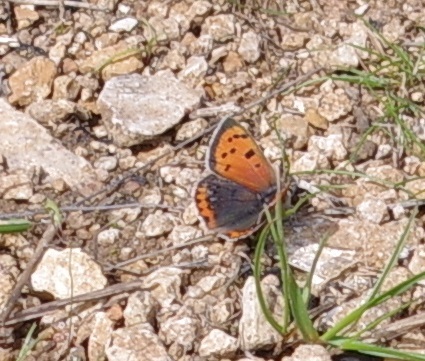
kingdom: Animalia
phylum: Arthropoda
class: Insecta
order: Lepidoptera
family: Lycaenidae
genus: Lycaena
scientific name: Lycaena phlaeas
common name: Small copper
